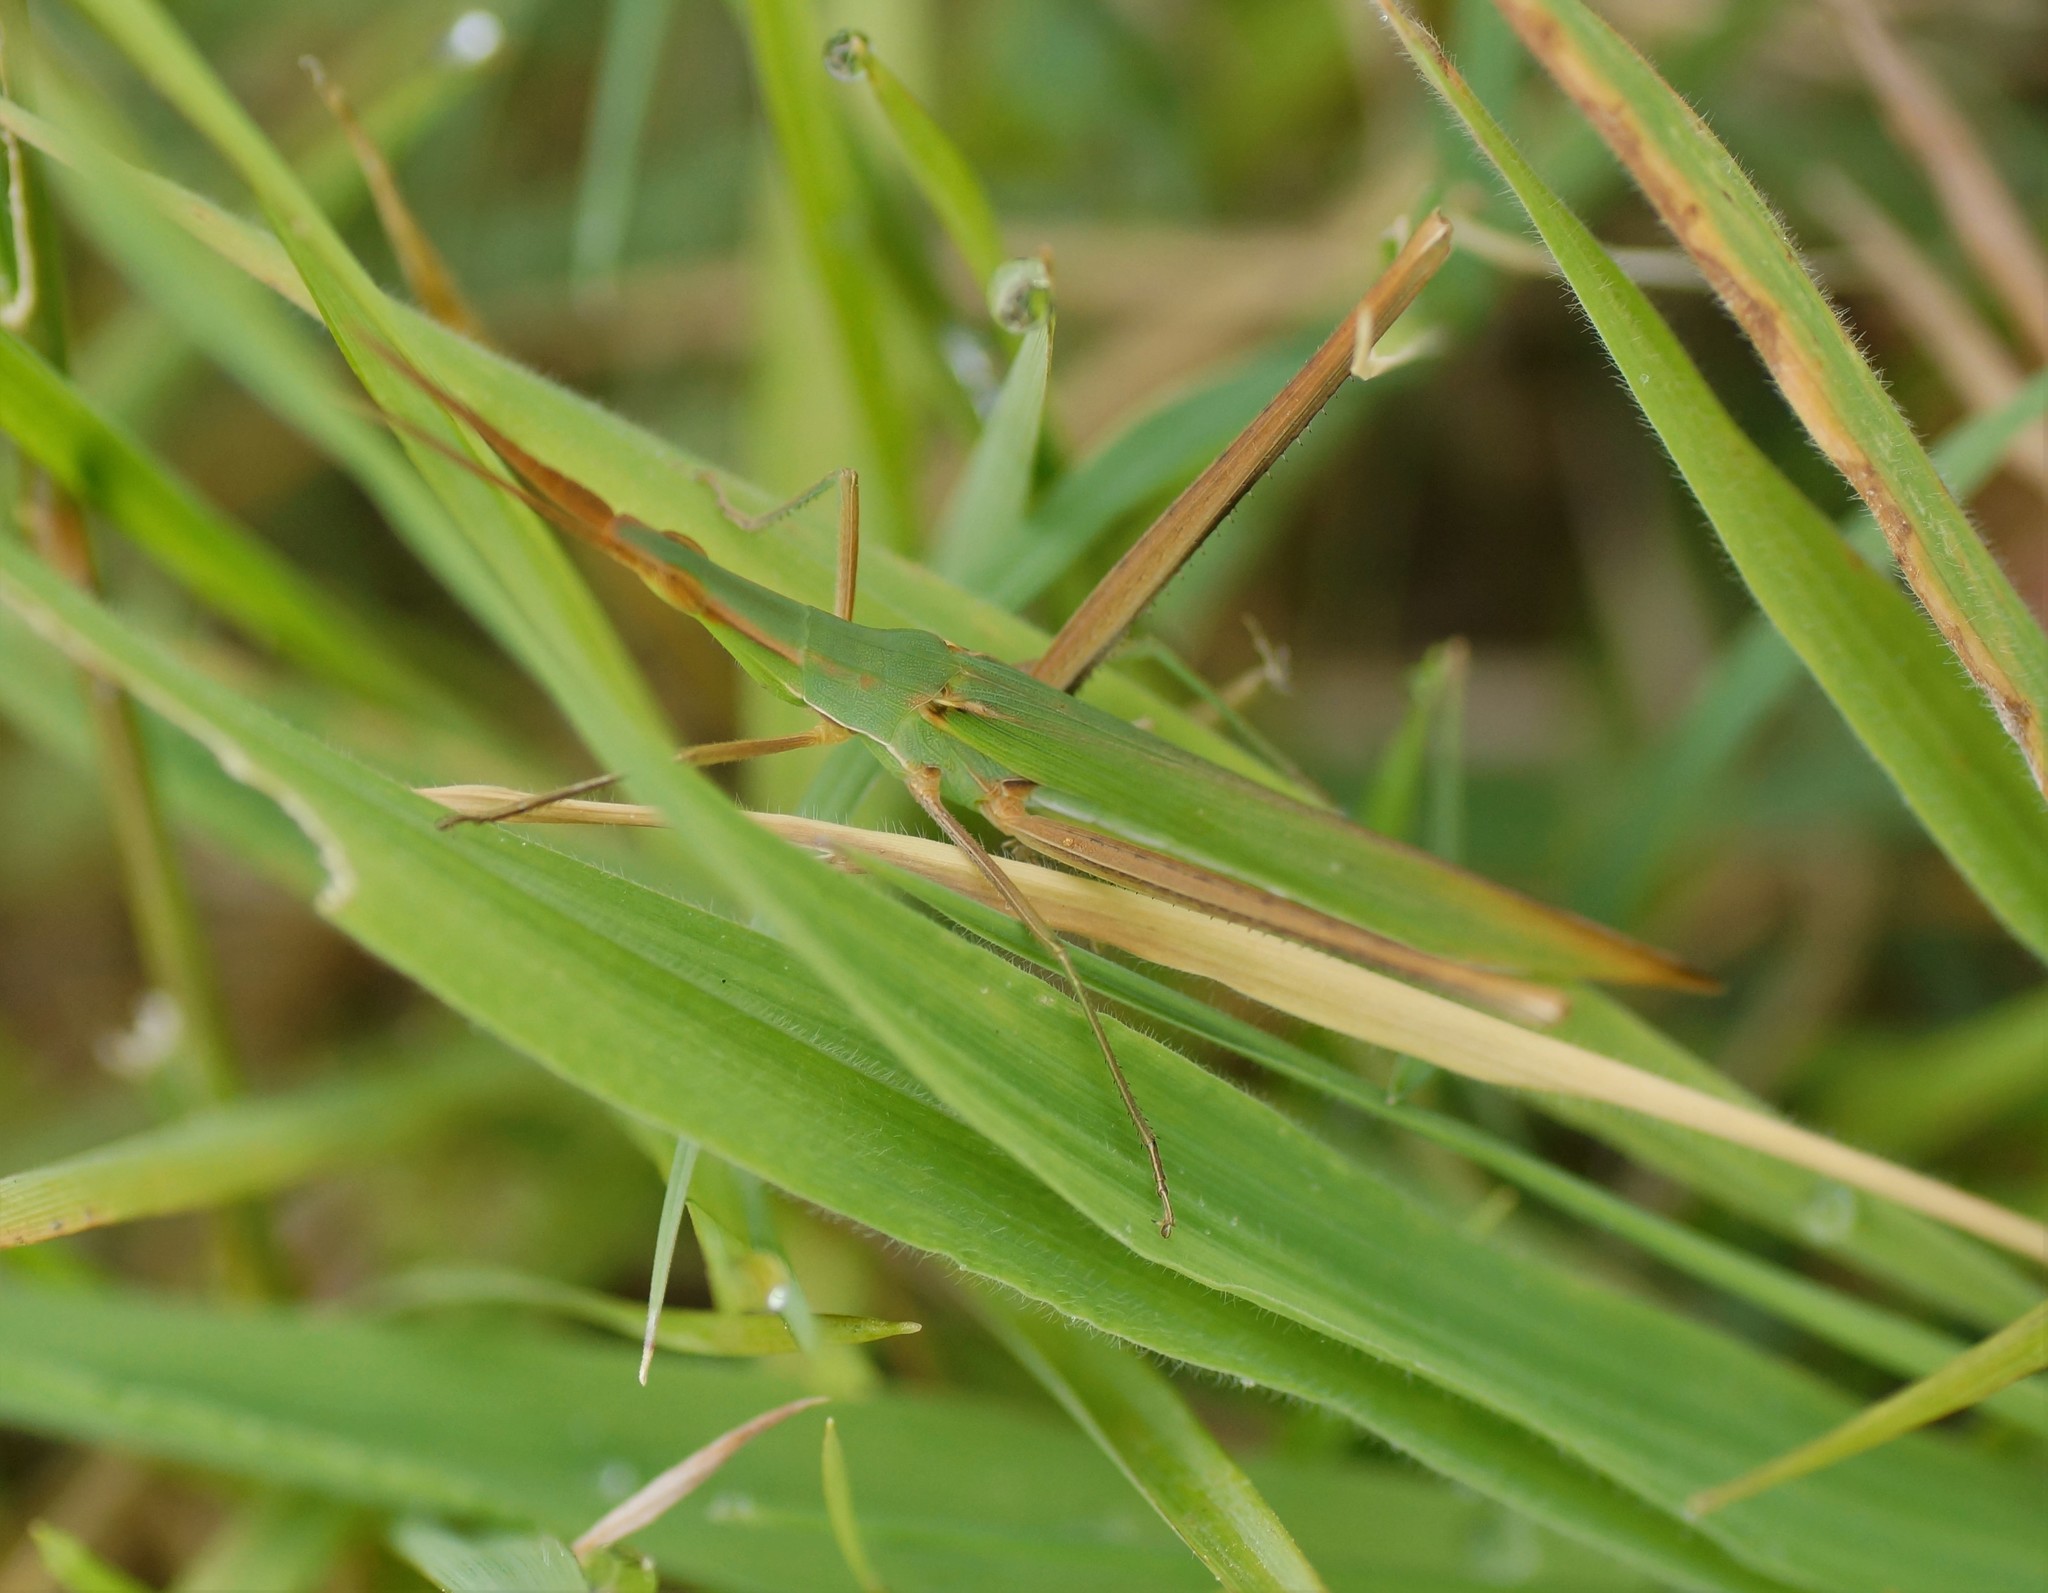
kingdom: Animalia
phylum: Arthropoda
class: Insecta
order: Orthoptera
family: Acrididae
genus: Acrida
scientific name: Acrida conica
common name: Giant green slantface
